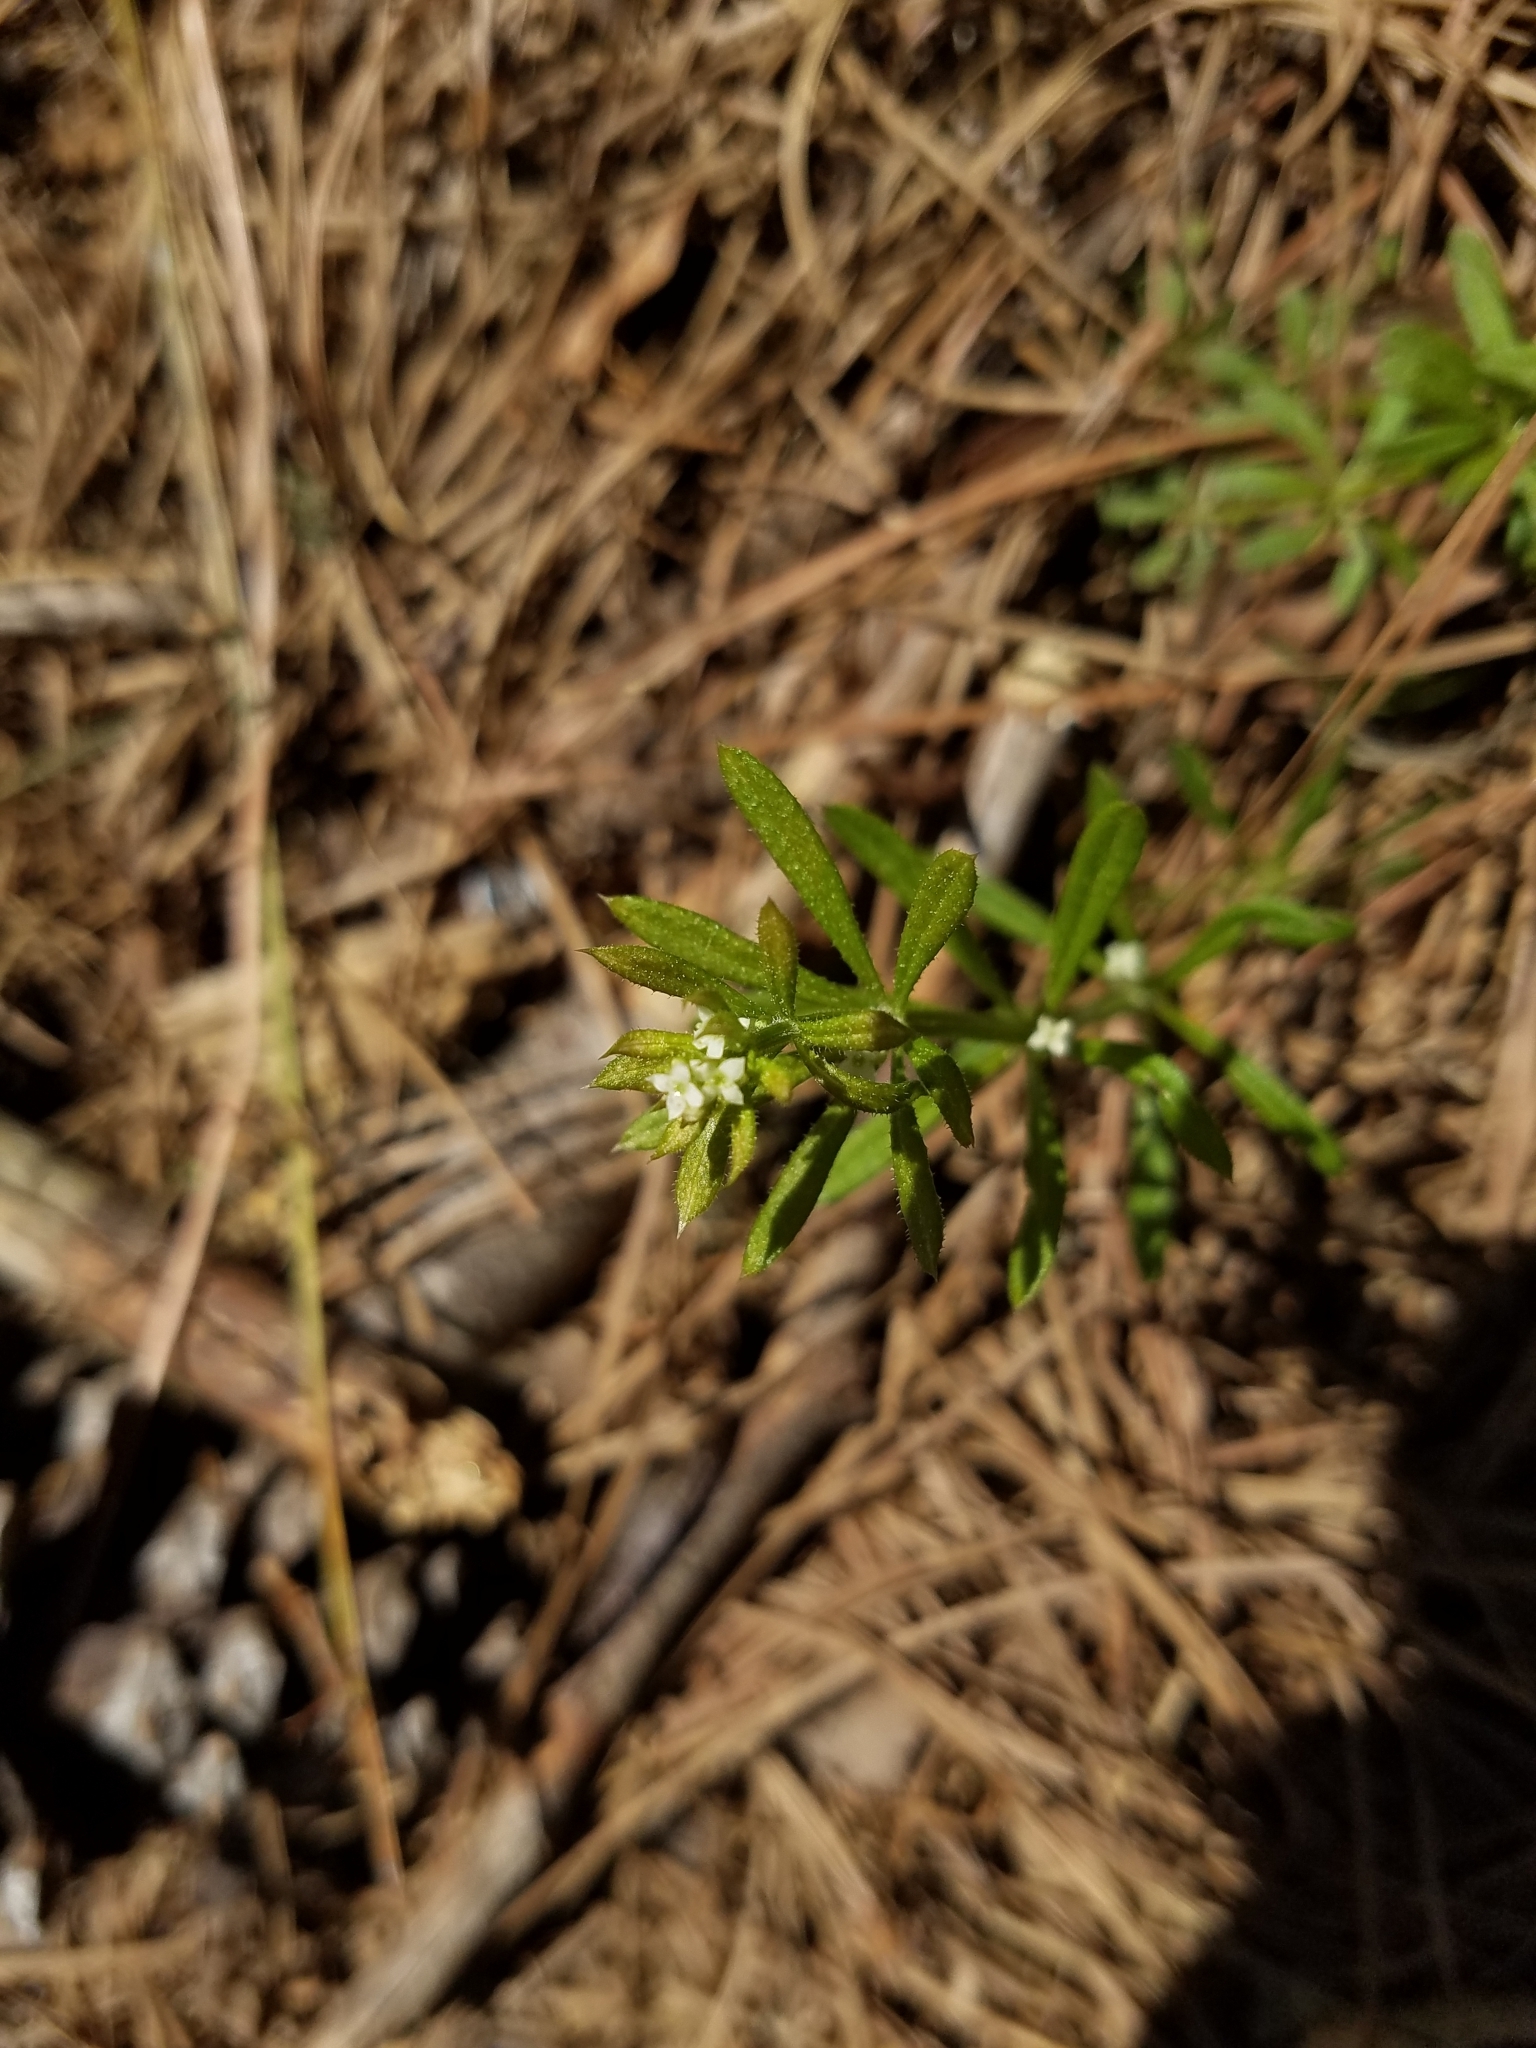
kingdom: Plantae
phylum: Tracheophyta
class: Magnoliopsida
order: Gentianales
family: Rubiaceae
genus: Galium
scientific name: Galium aparine
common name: Cleavers
